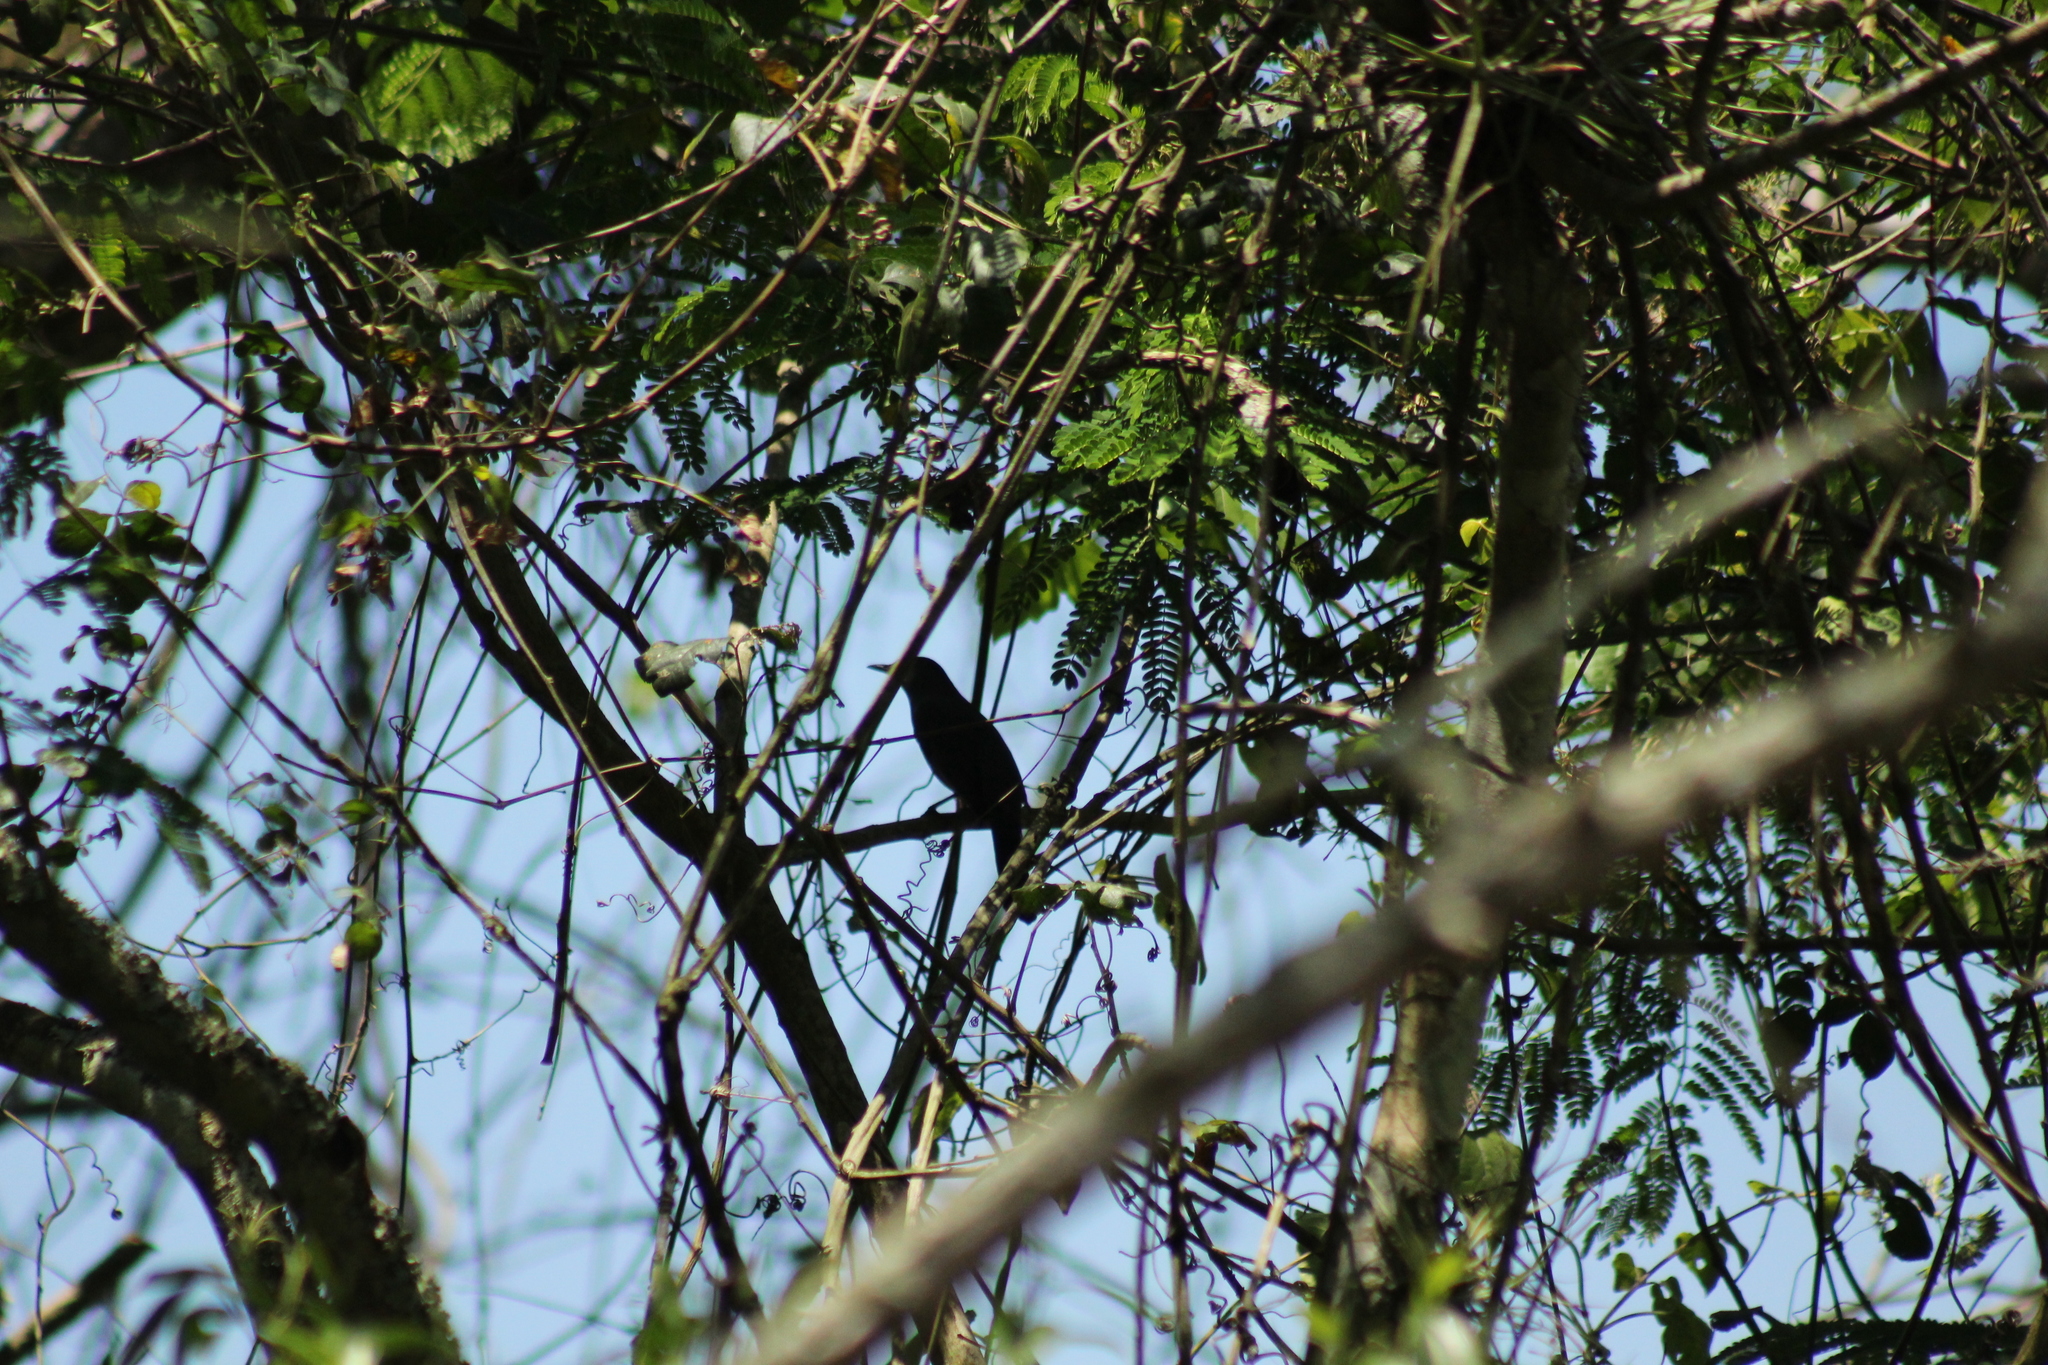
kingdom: Animalia
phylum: Chordata
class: Aves
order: Passeriformes
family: Mimidae
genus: Dumetella
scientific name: Dumetella carolinensis
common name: Gray catbird
